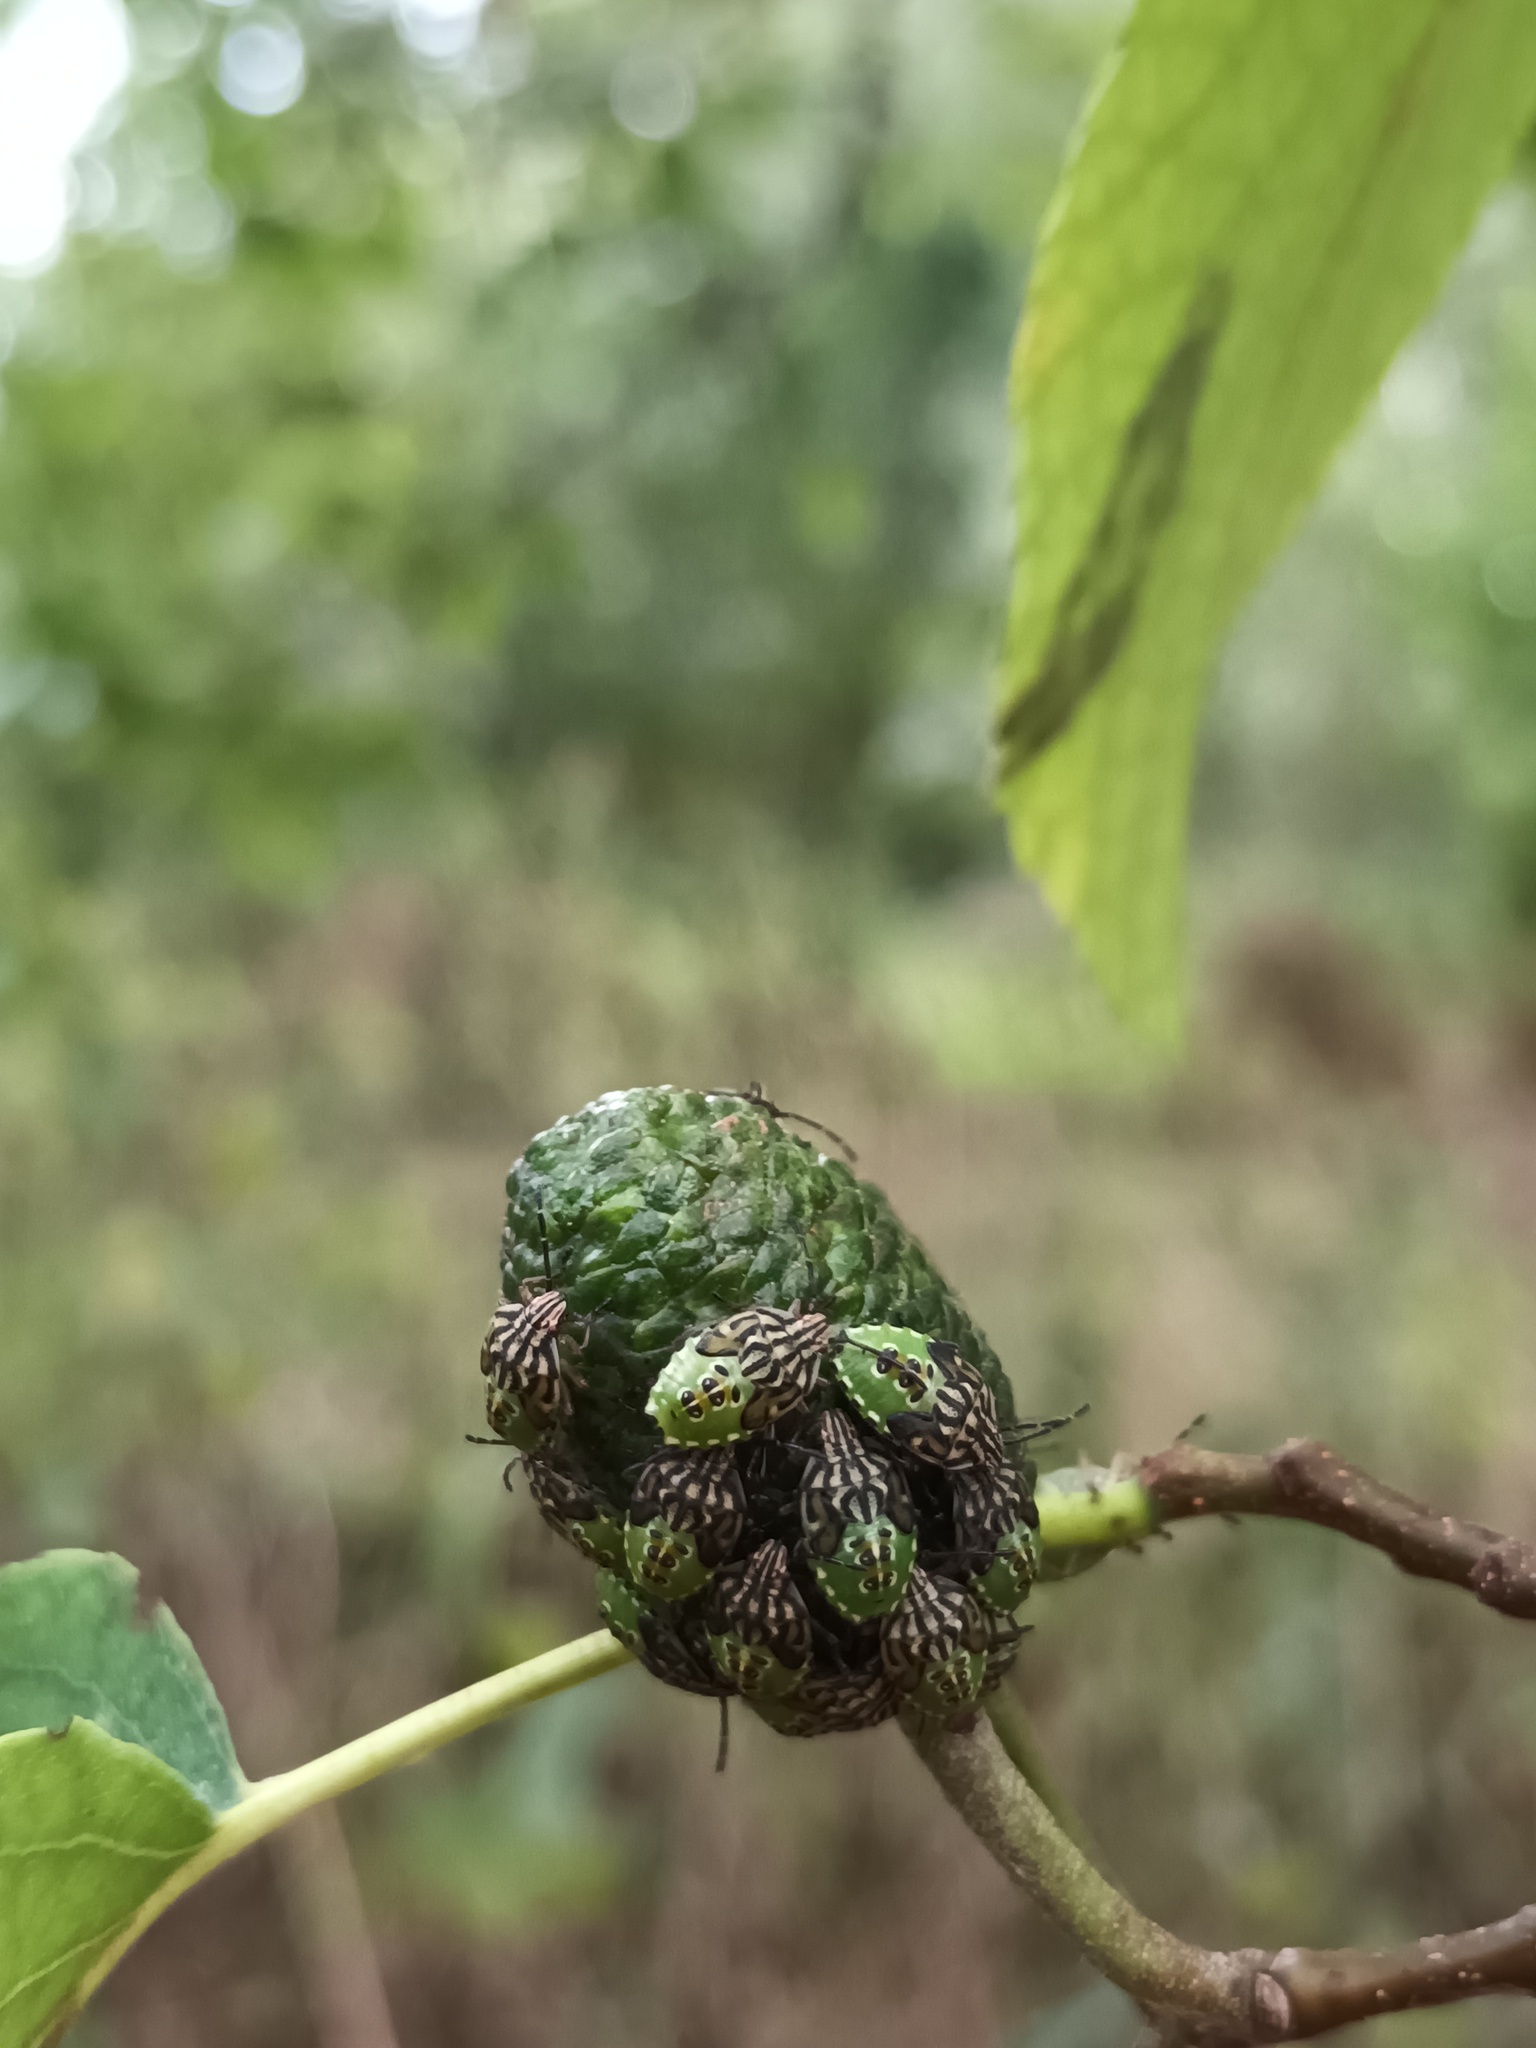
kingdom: Animalia
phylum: Arthropoda
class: Insecta
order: Hemiptera
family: Acanthosomatidae
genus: Elasmucha
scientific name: Elasmucha grisea
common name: Parent bug
